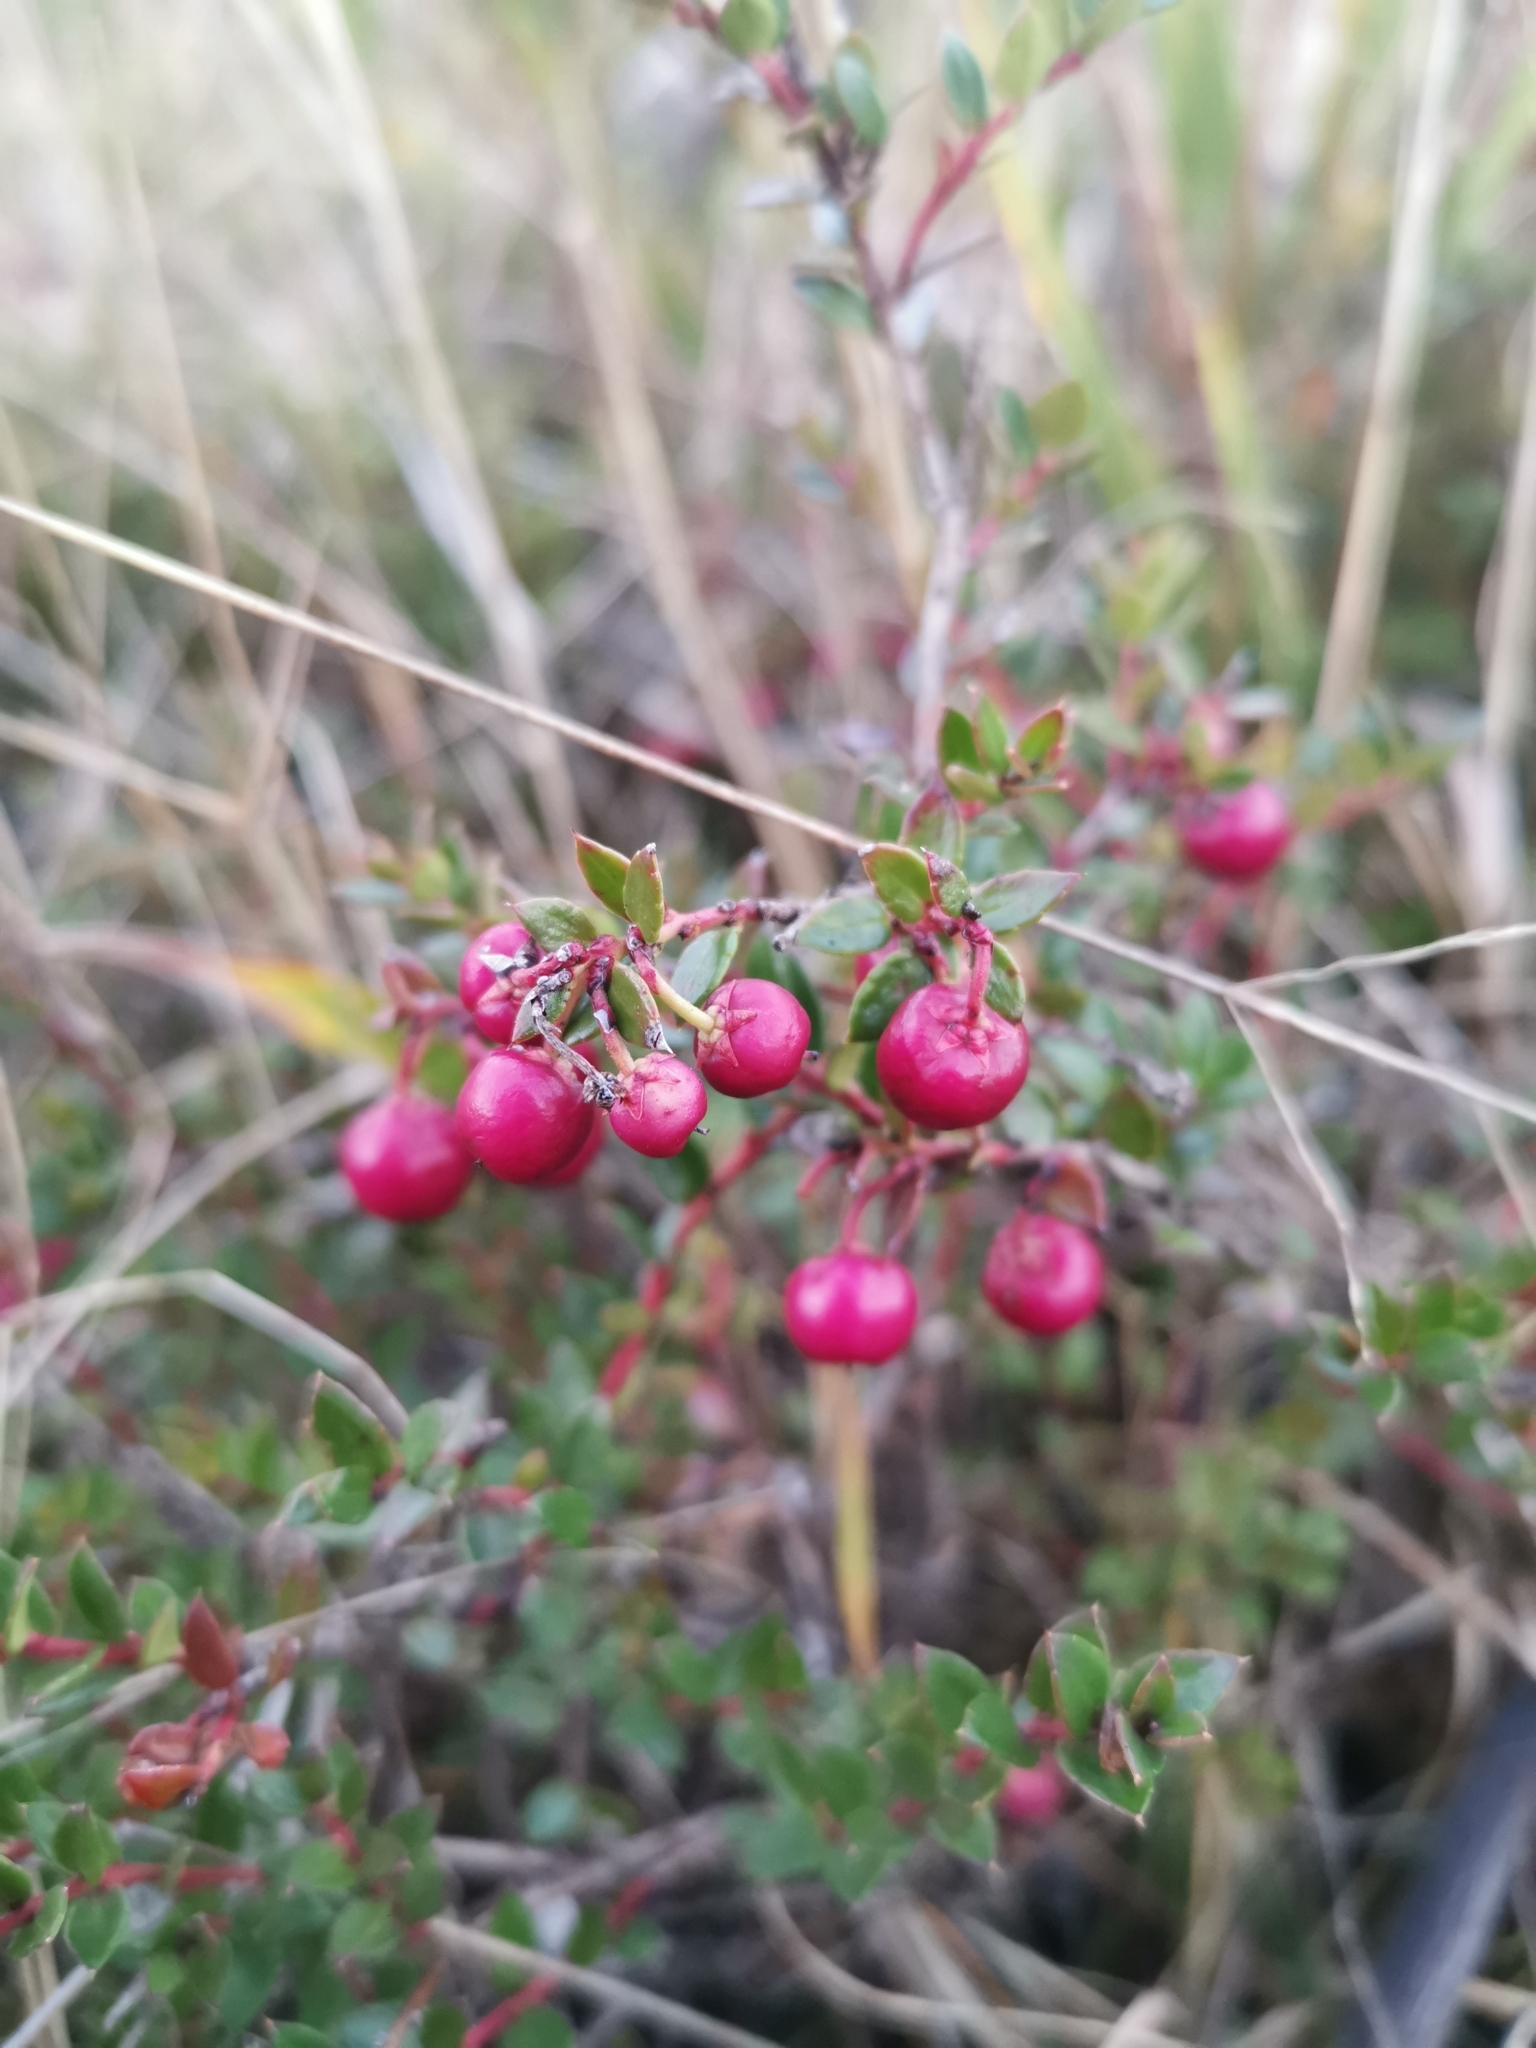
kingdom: Plantae
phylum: Tracheophyta
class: Magnoliopsida
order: Ericales
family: Ericaceae
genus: Gaultheria
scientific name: Gaultheria mucronata
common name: Prickly heath
